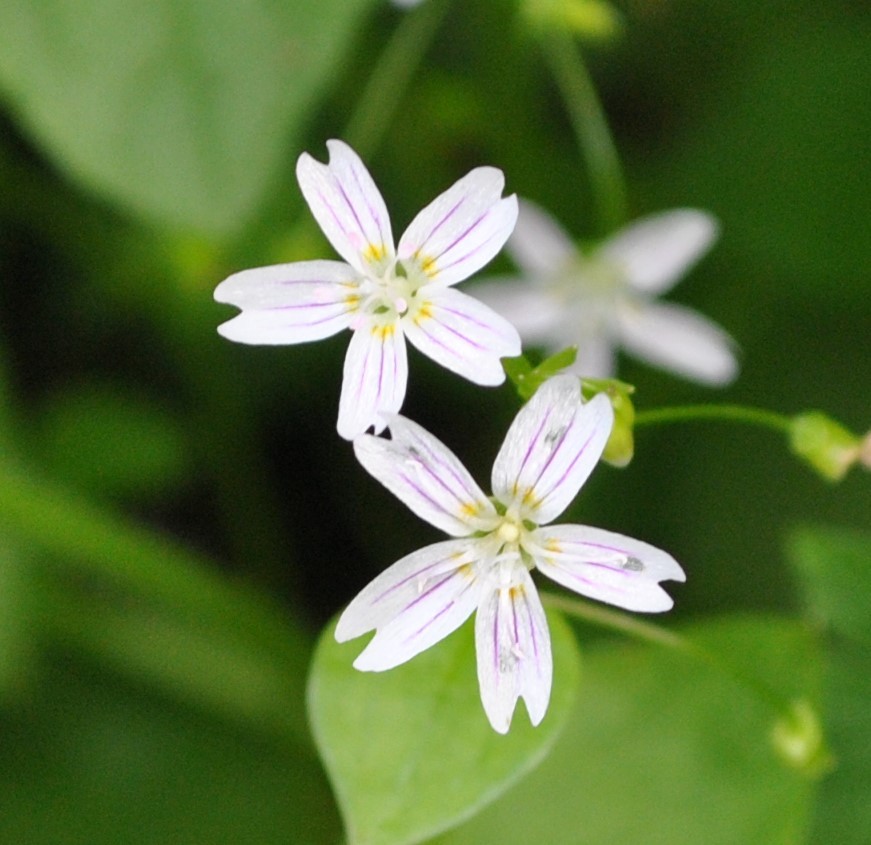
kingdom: Plantae
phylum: Tracheophyta
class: Magnoliopsida
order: Caryophyllales
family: Montiaceae
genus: Claytonia
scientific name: Claytonia sibirica
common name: Pink purslane
